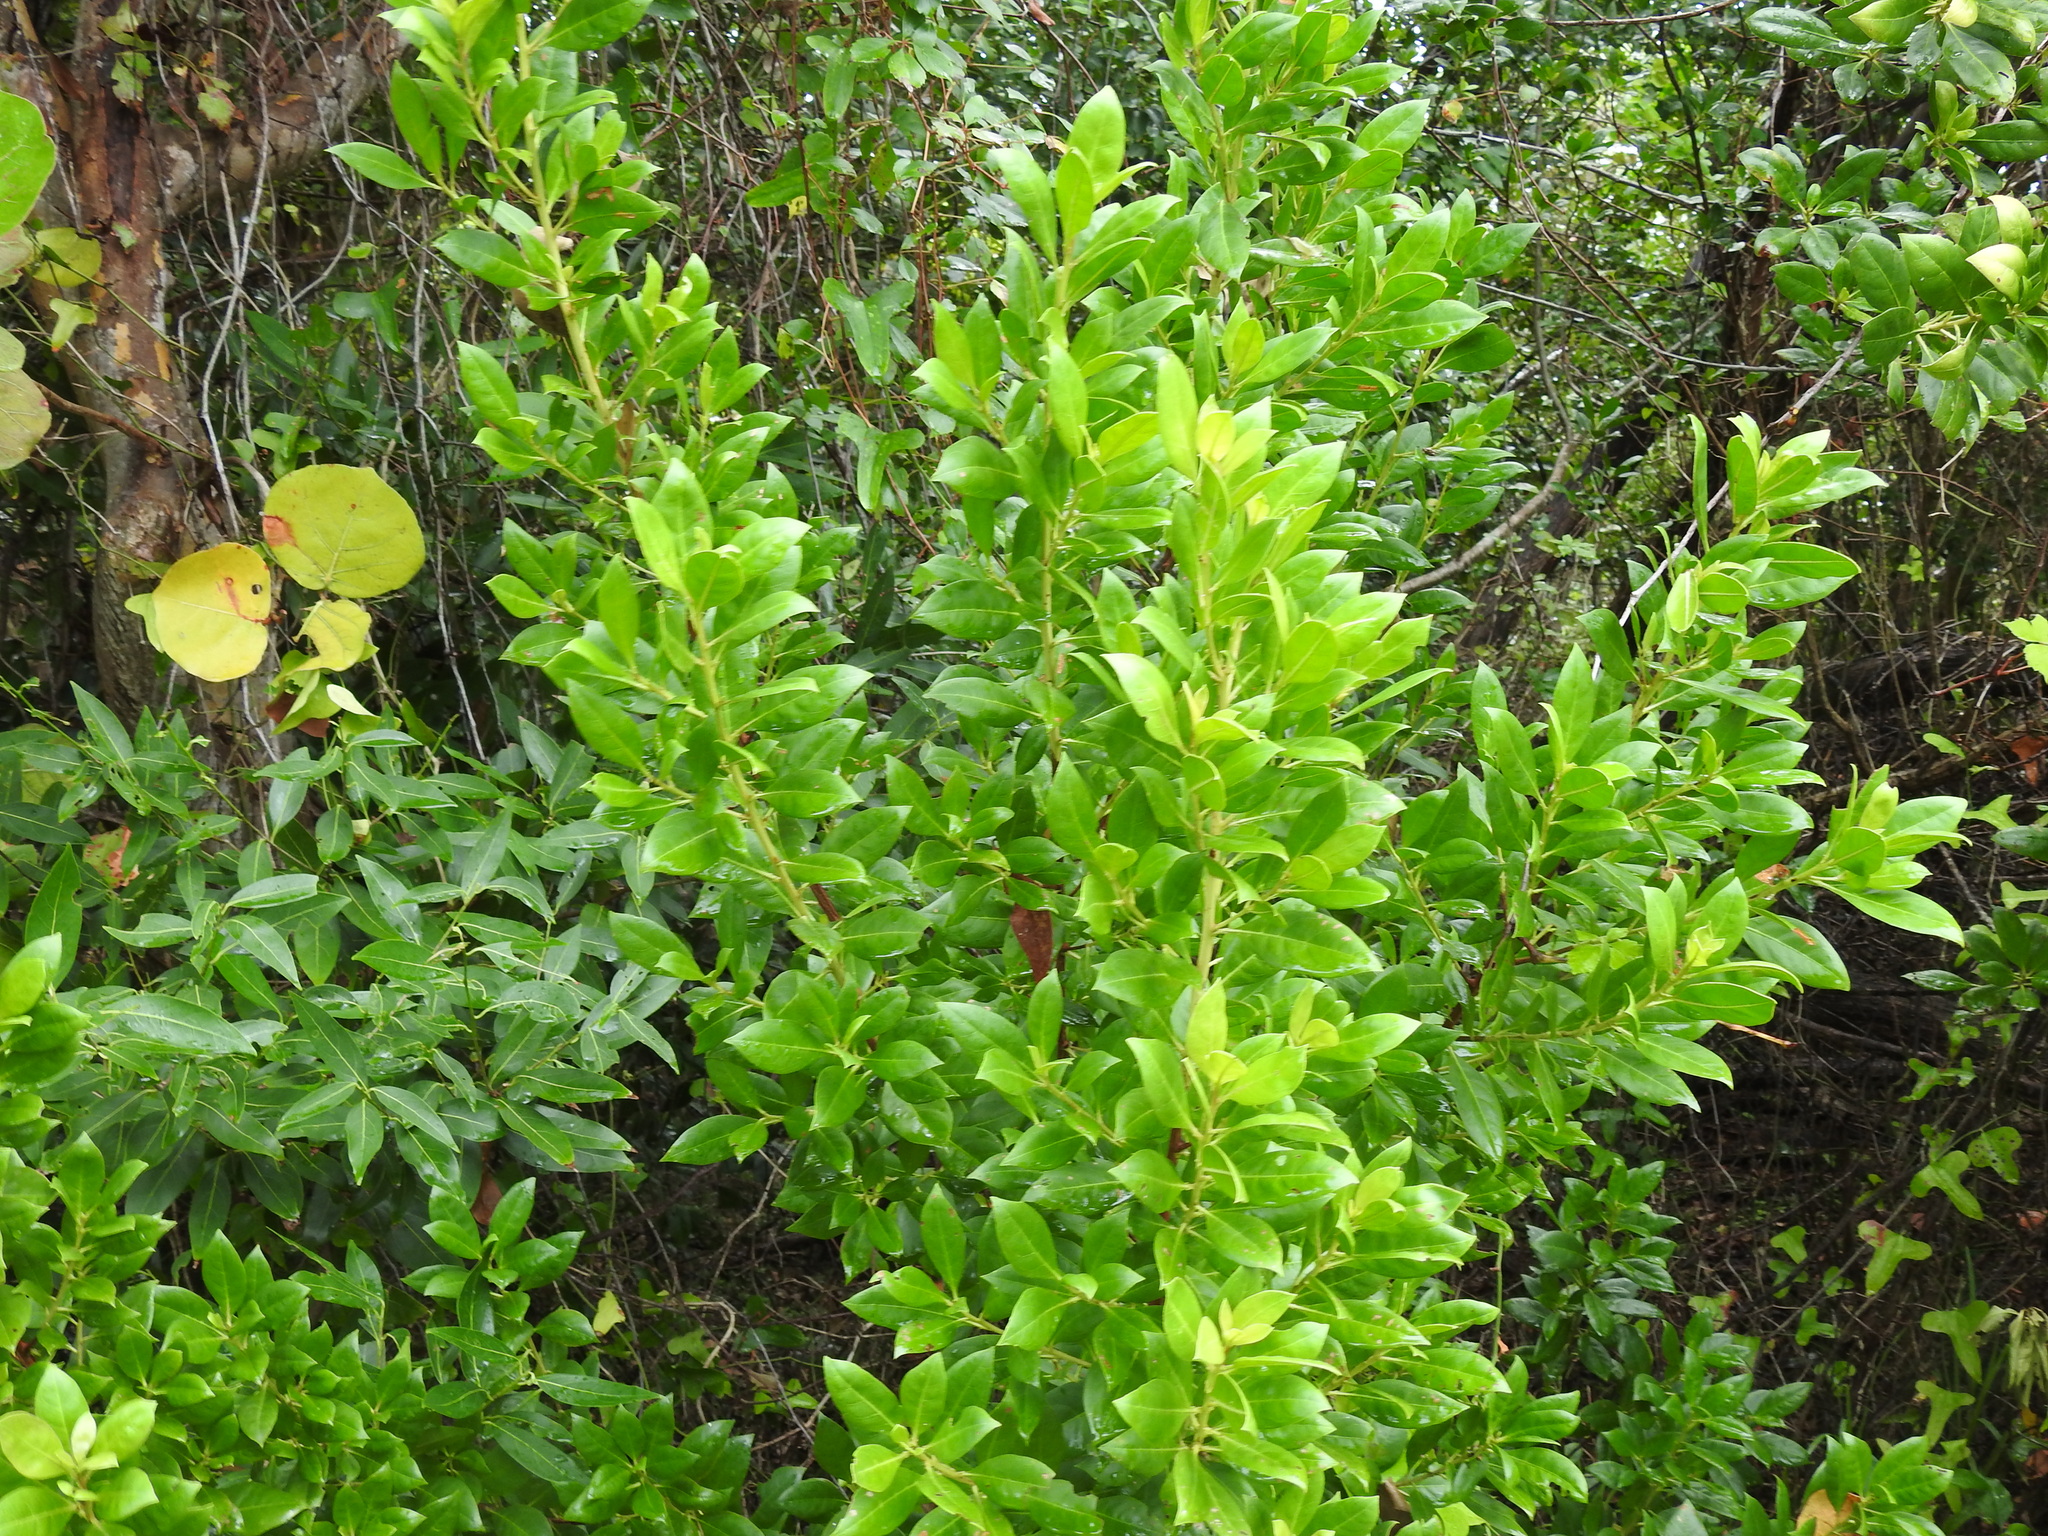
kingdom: Plantae
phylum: Tracheophyta
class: Magnoliopsida
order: Myrtales
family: Combretaceae
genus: Conocarpus
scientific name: Conocarpus erectus
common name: Button mangrove
